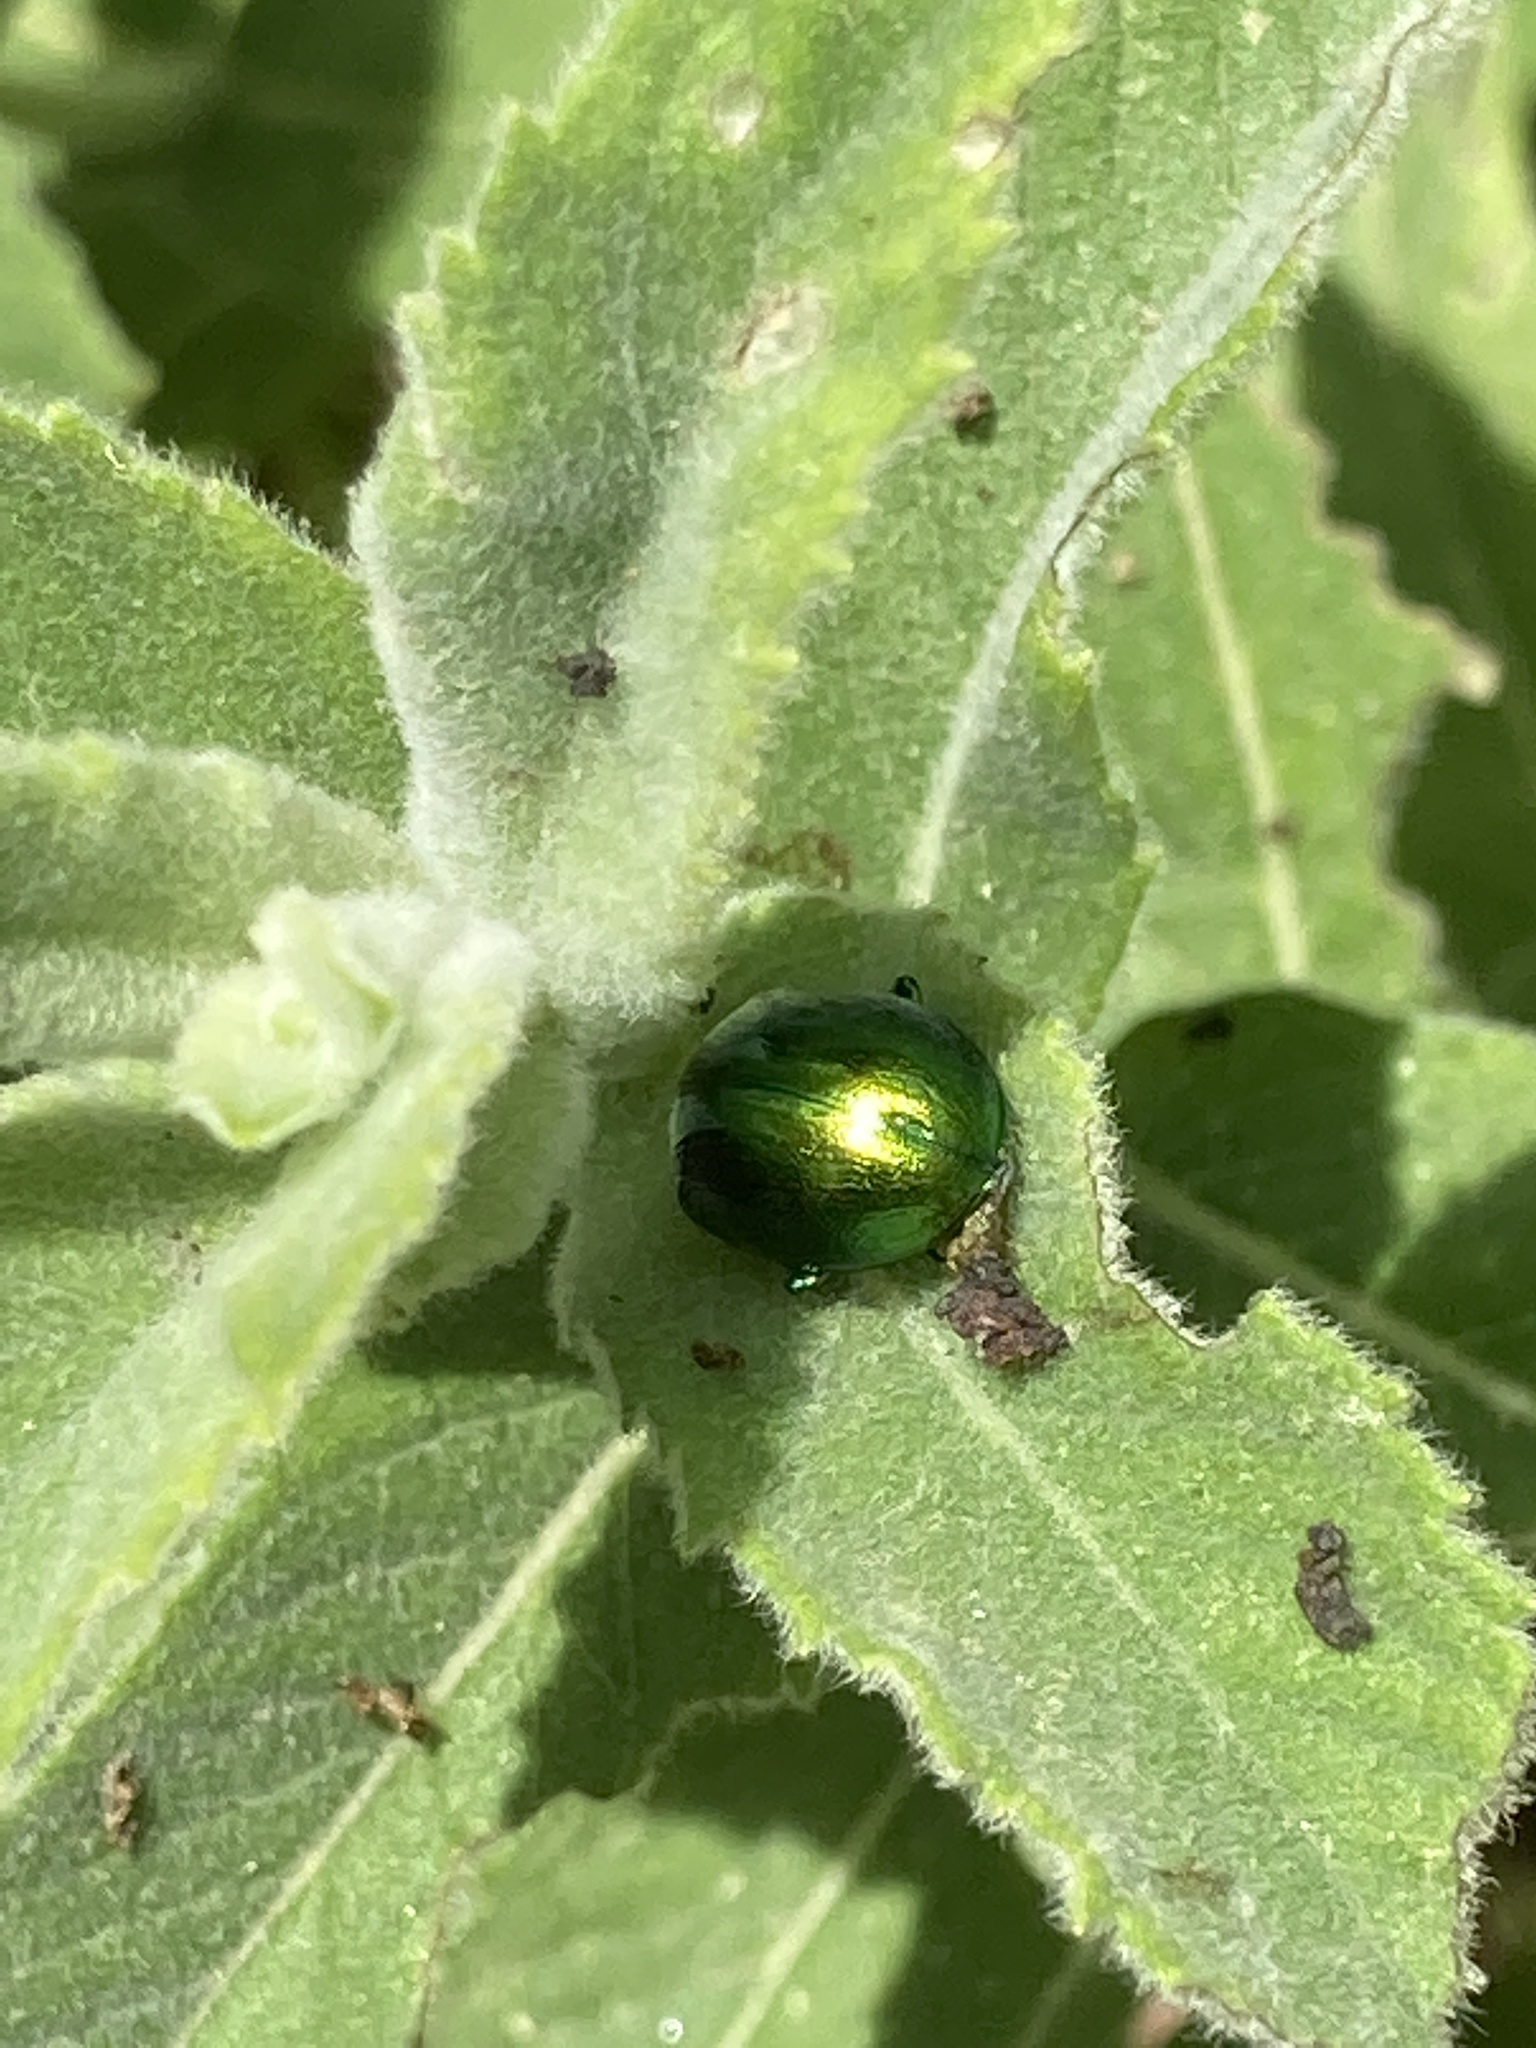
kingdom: Animalia
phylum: Arthropoda
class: Insecta
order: Coleoptera
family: Chrysomelidae
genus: Chrysolina
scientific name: Chrysolina herbacea
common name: Mint leaf beatle
